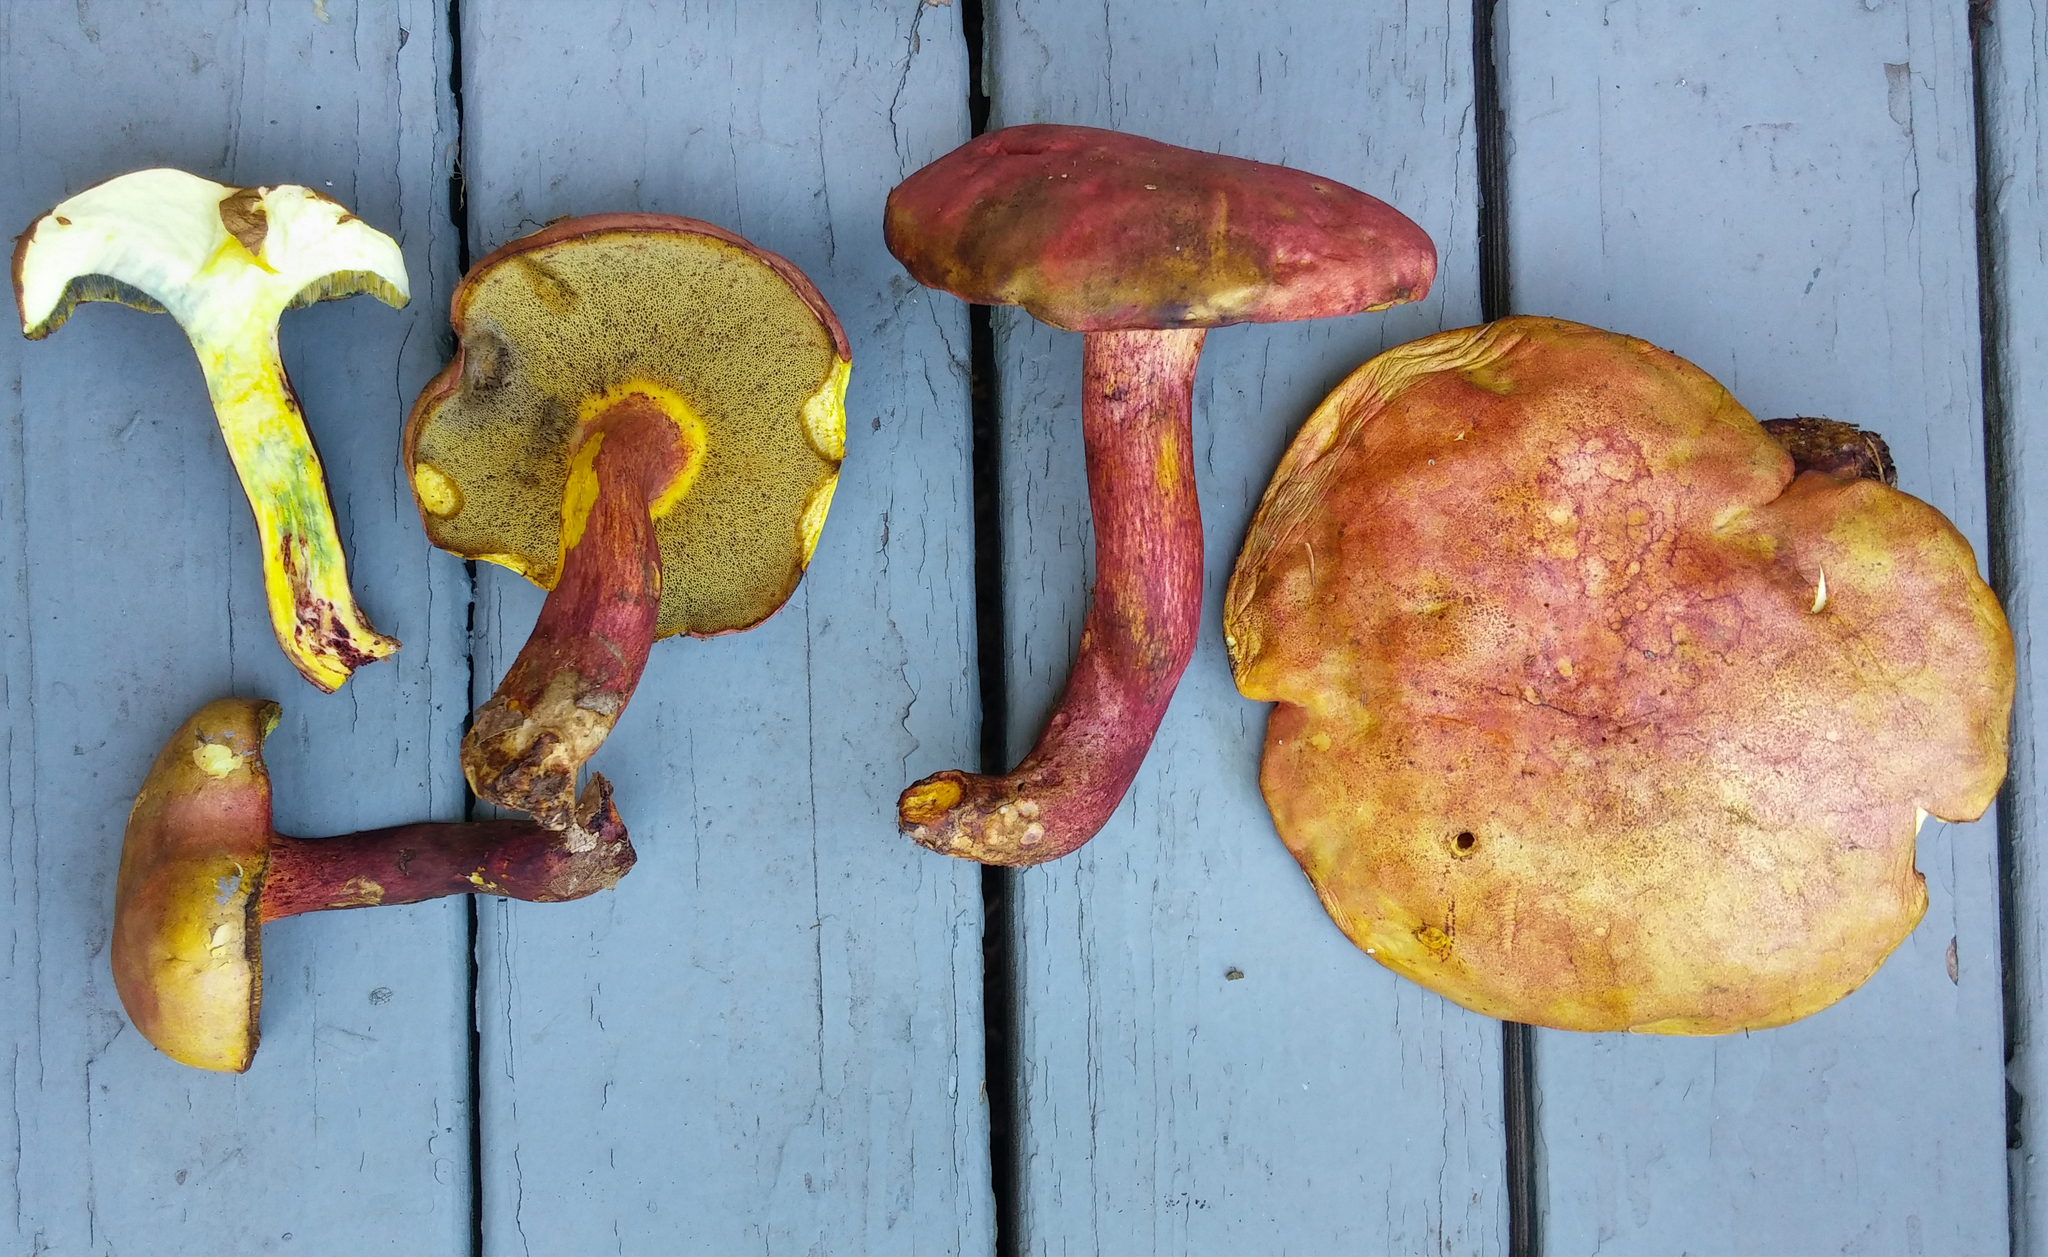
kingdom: Fungi
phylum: Basidiomycota
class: Agaricomycetes
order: Boletales
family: Boletaceae
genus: Baorangia
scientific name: Baorangia bicolor
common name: Two-colored bolete
